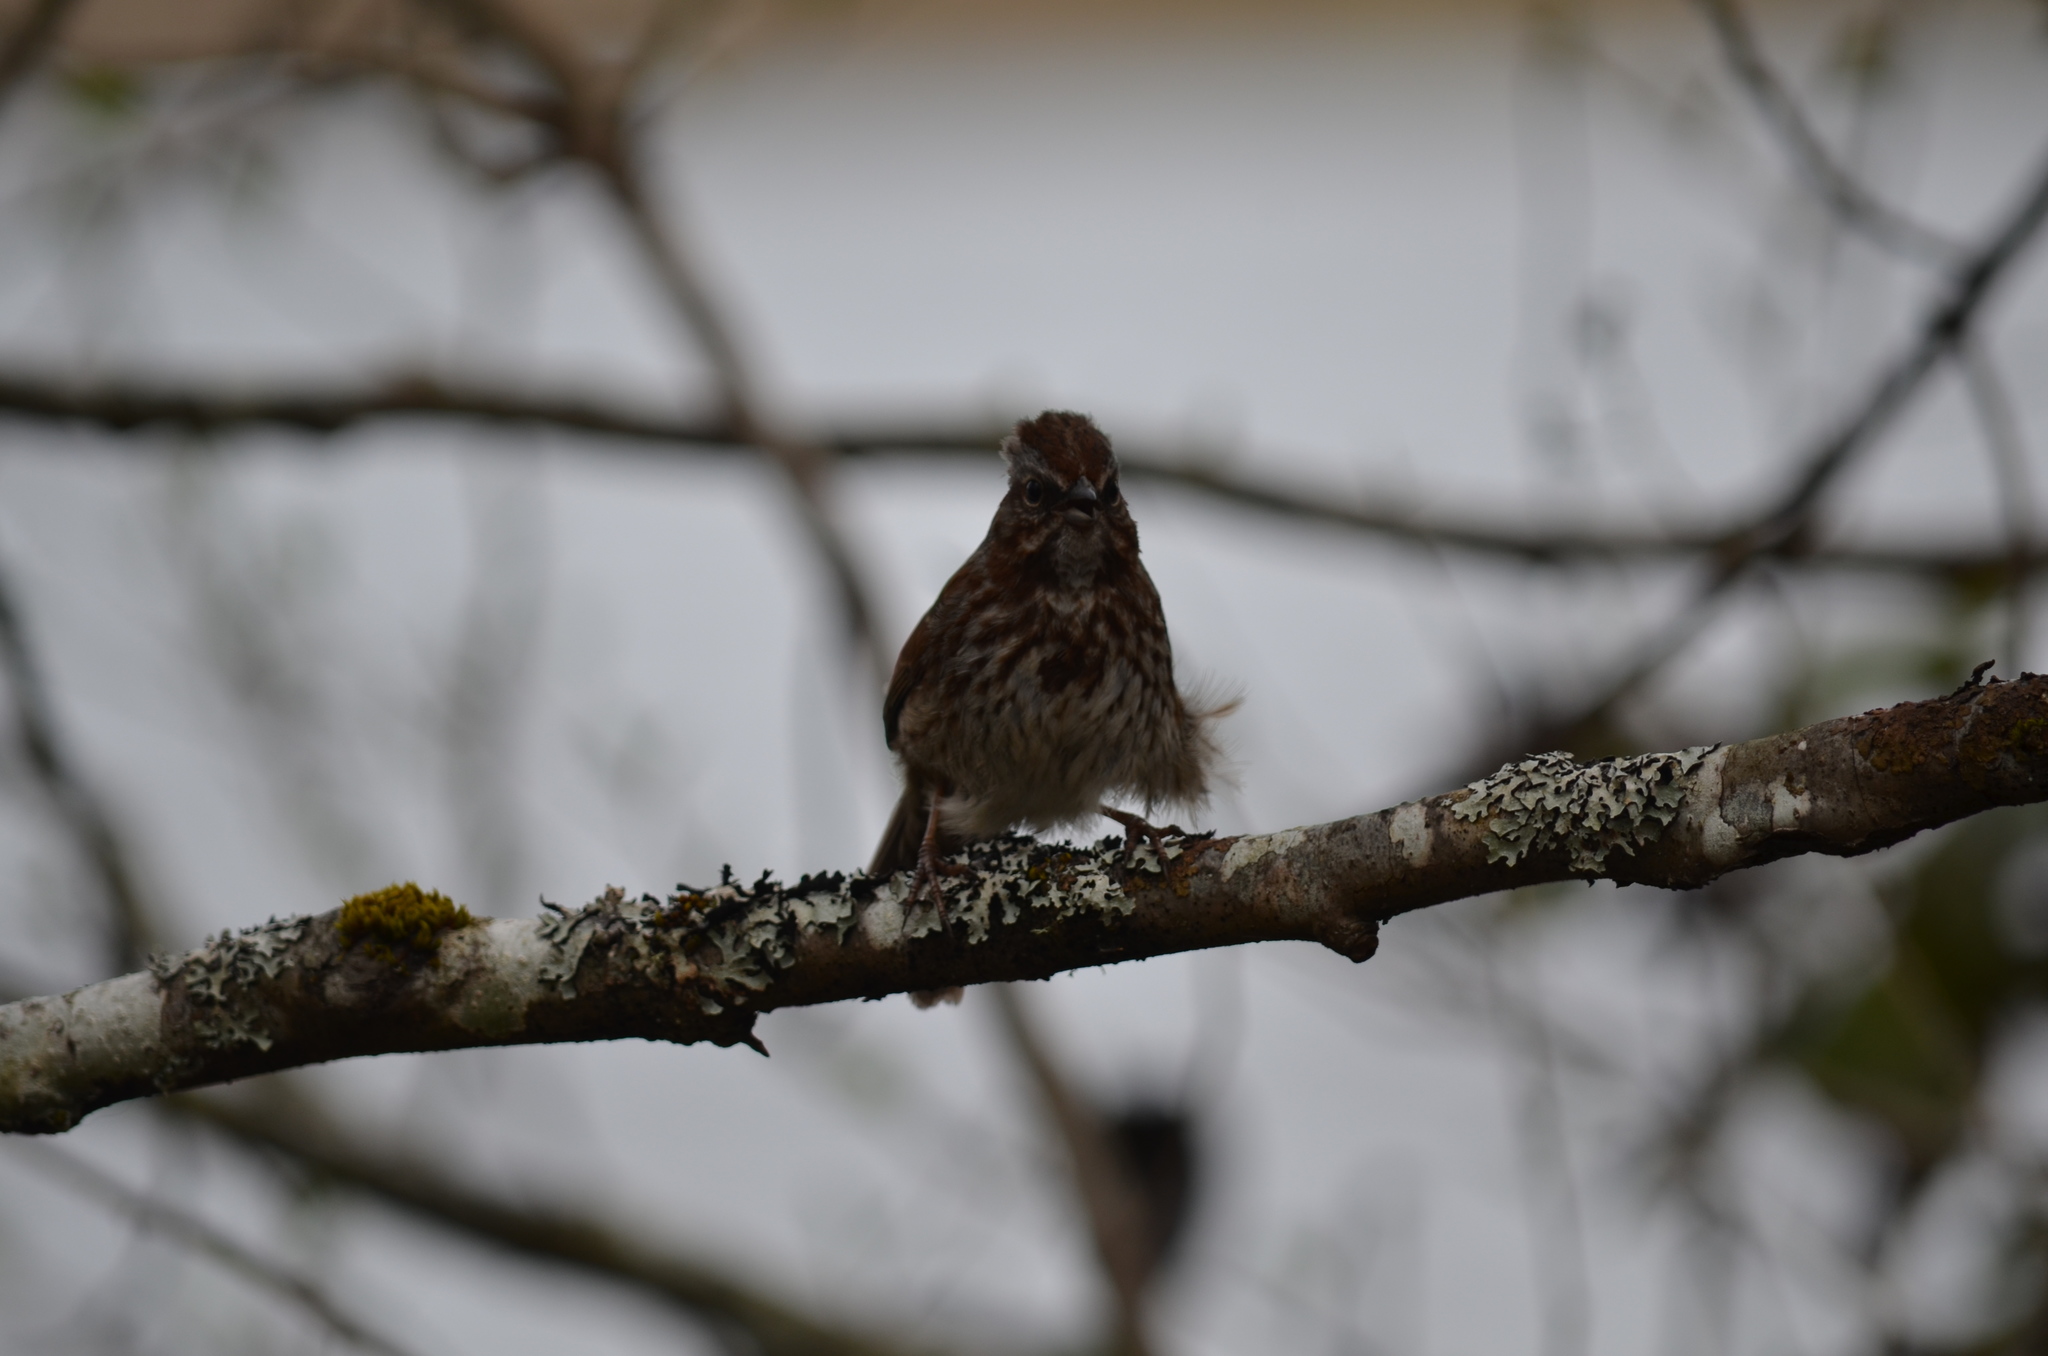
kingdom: Animalia
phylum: Chordata
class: Aves
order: Passeriformes
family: Passerellidae
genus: Melospiza
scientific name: Melospiza melodia
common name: Song sparrow
